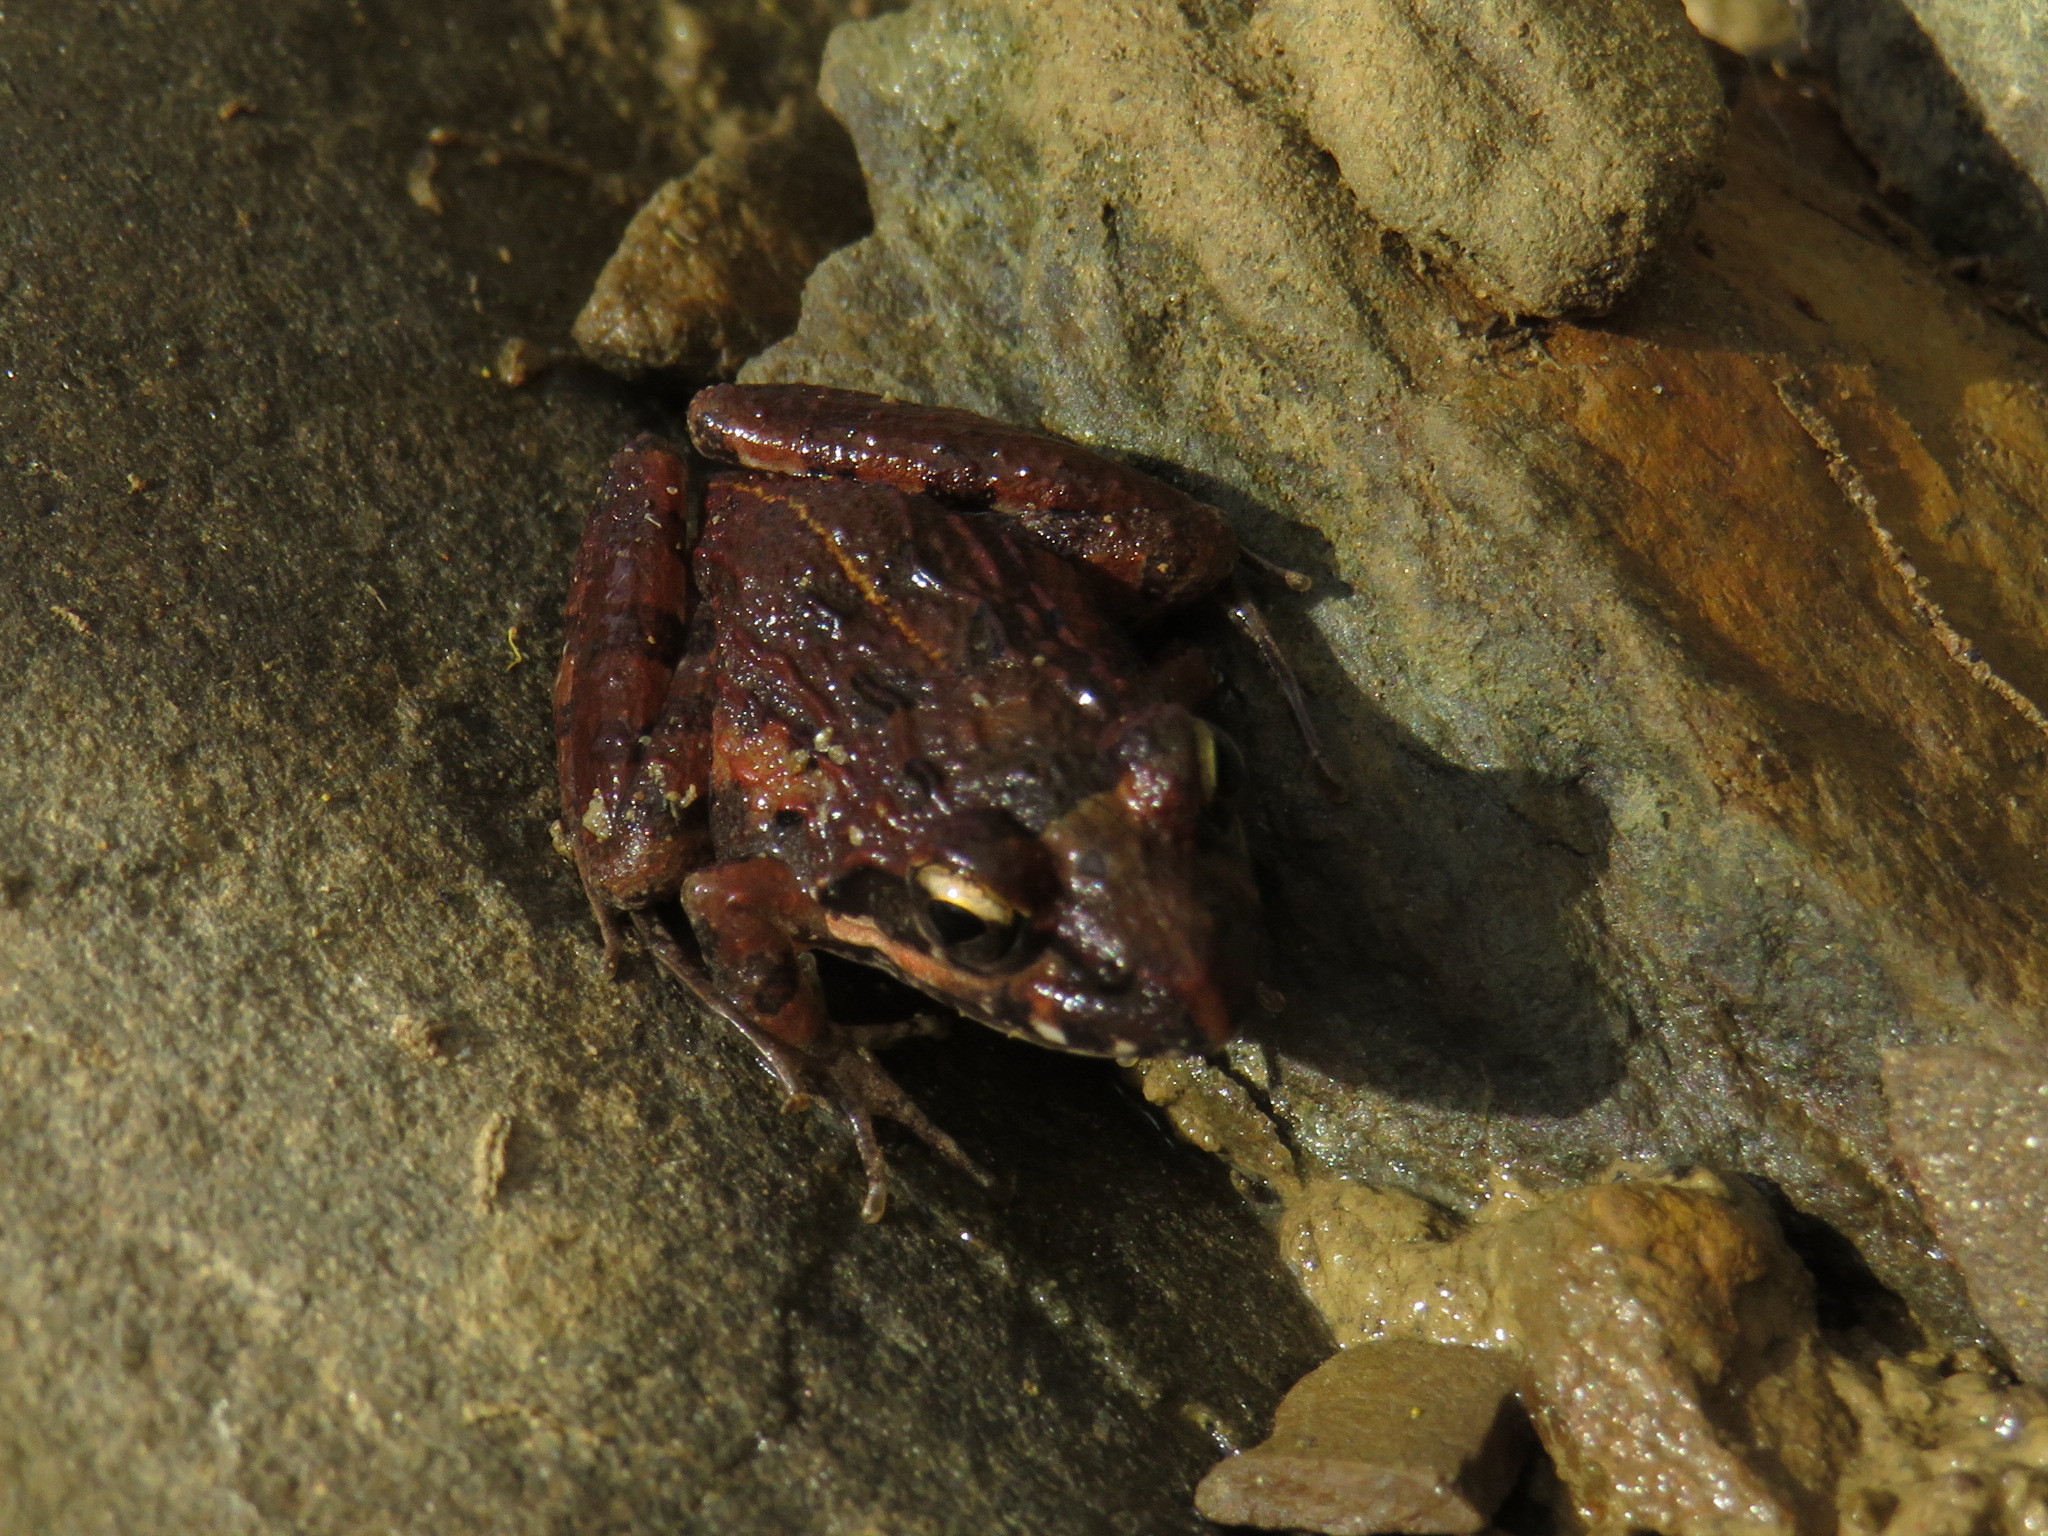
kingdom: Animalia
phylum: Chordata
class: Amphibia
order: Anura
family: Pyxicephalidae
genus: Strongylopus
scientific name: Strongylopus grayii
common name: Gray's stream frog
